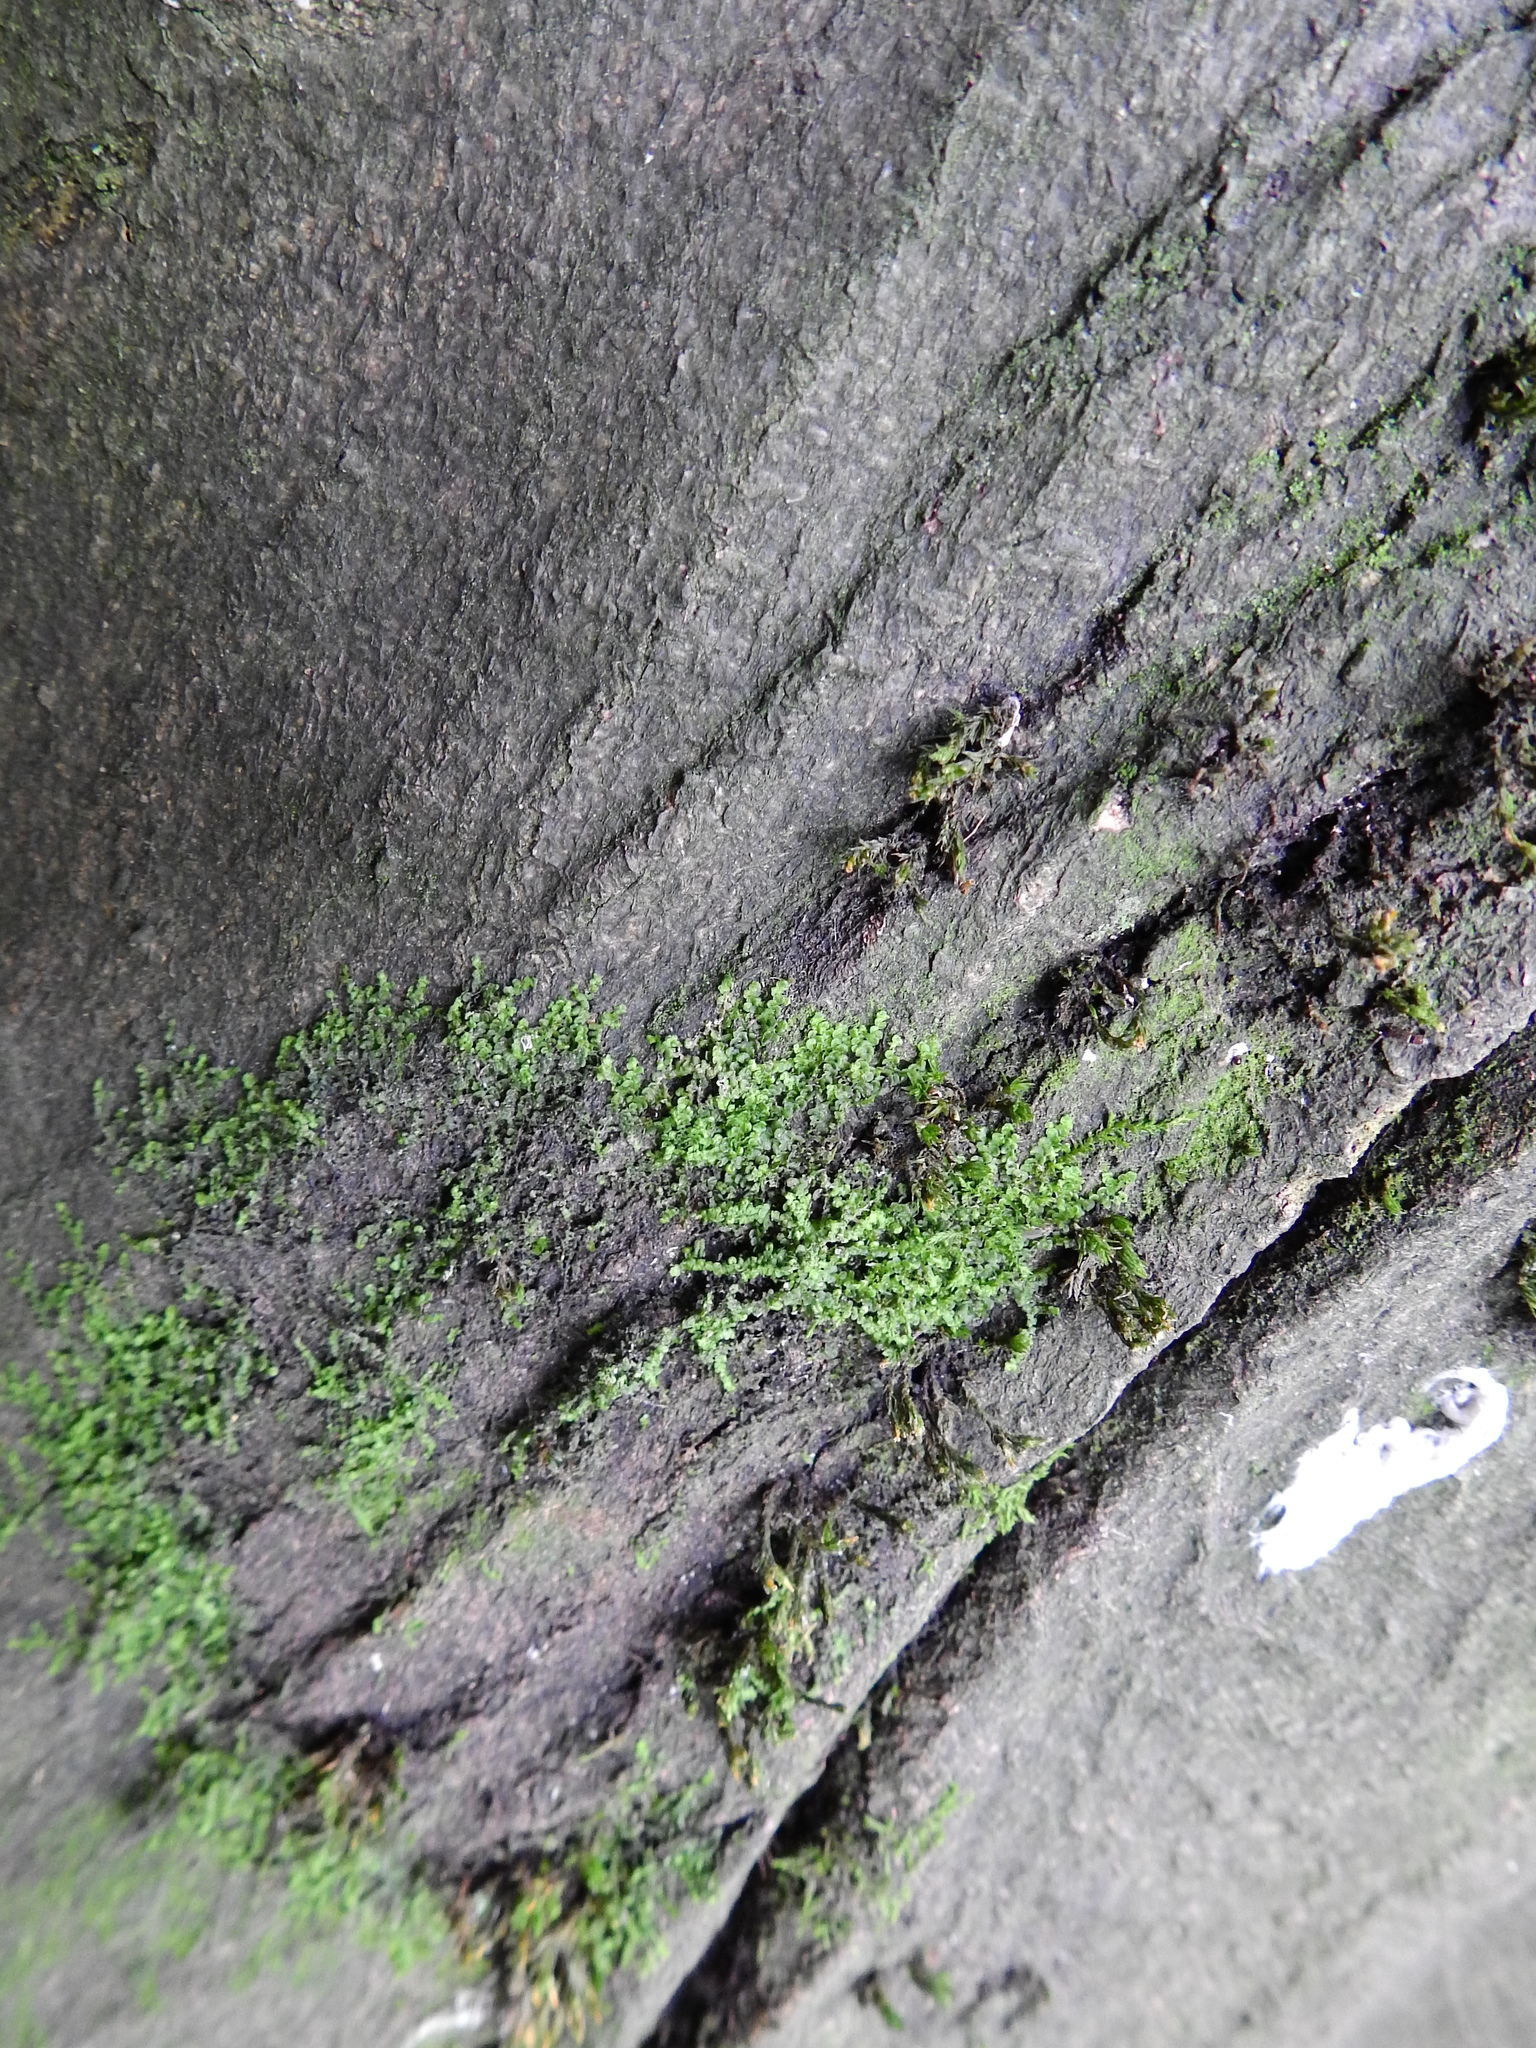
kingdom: Plantae
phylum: Marchantiophyta
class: Jungermanniopsida
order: Porellales
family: Frullaniaceae
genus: Frullania
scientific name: Frullania dilatata
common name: Dilated scalewort
